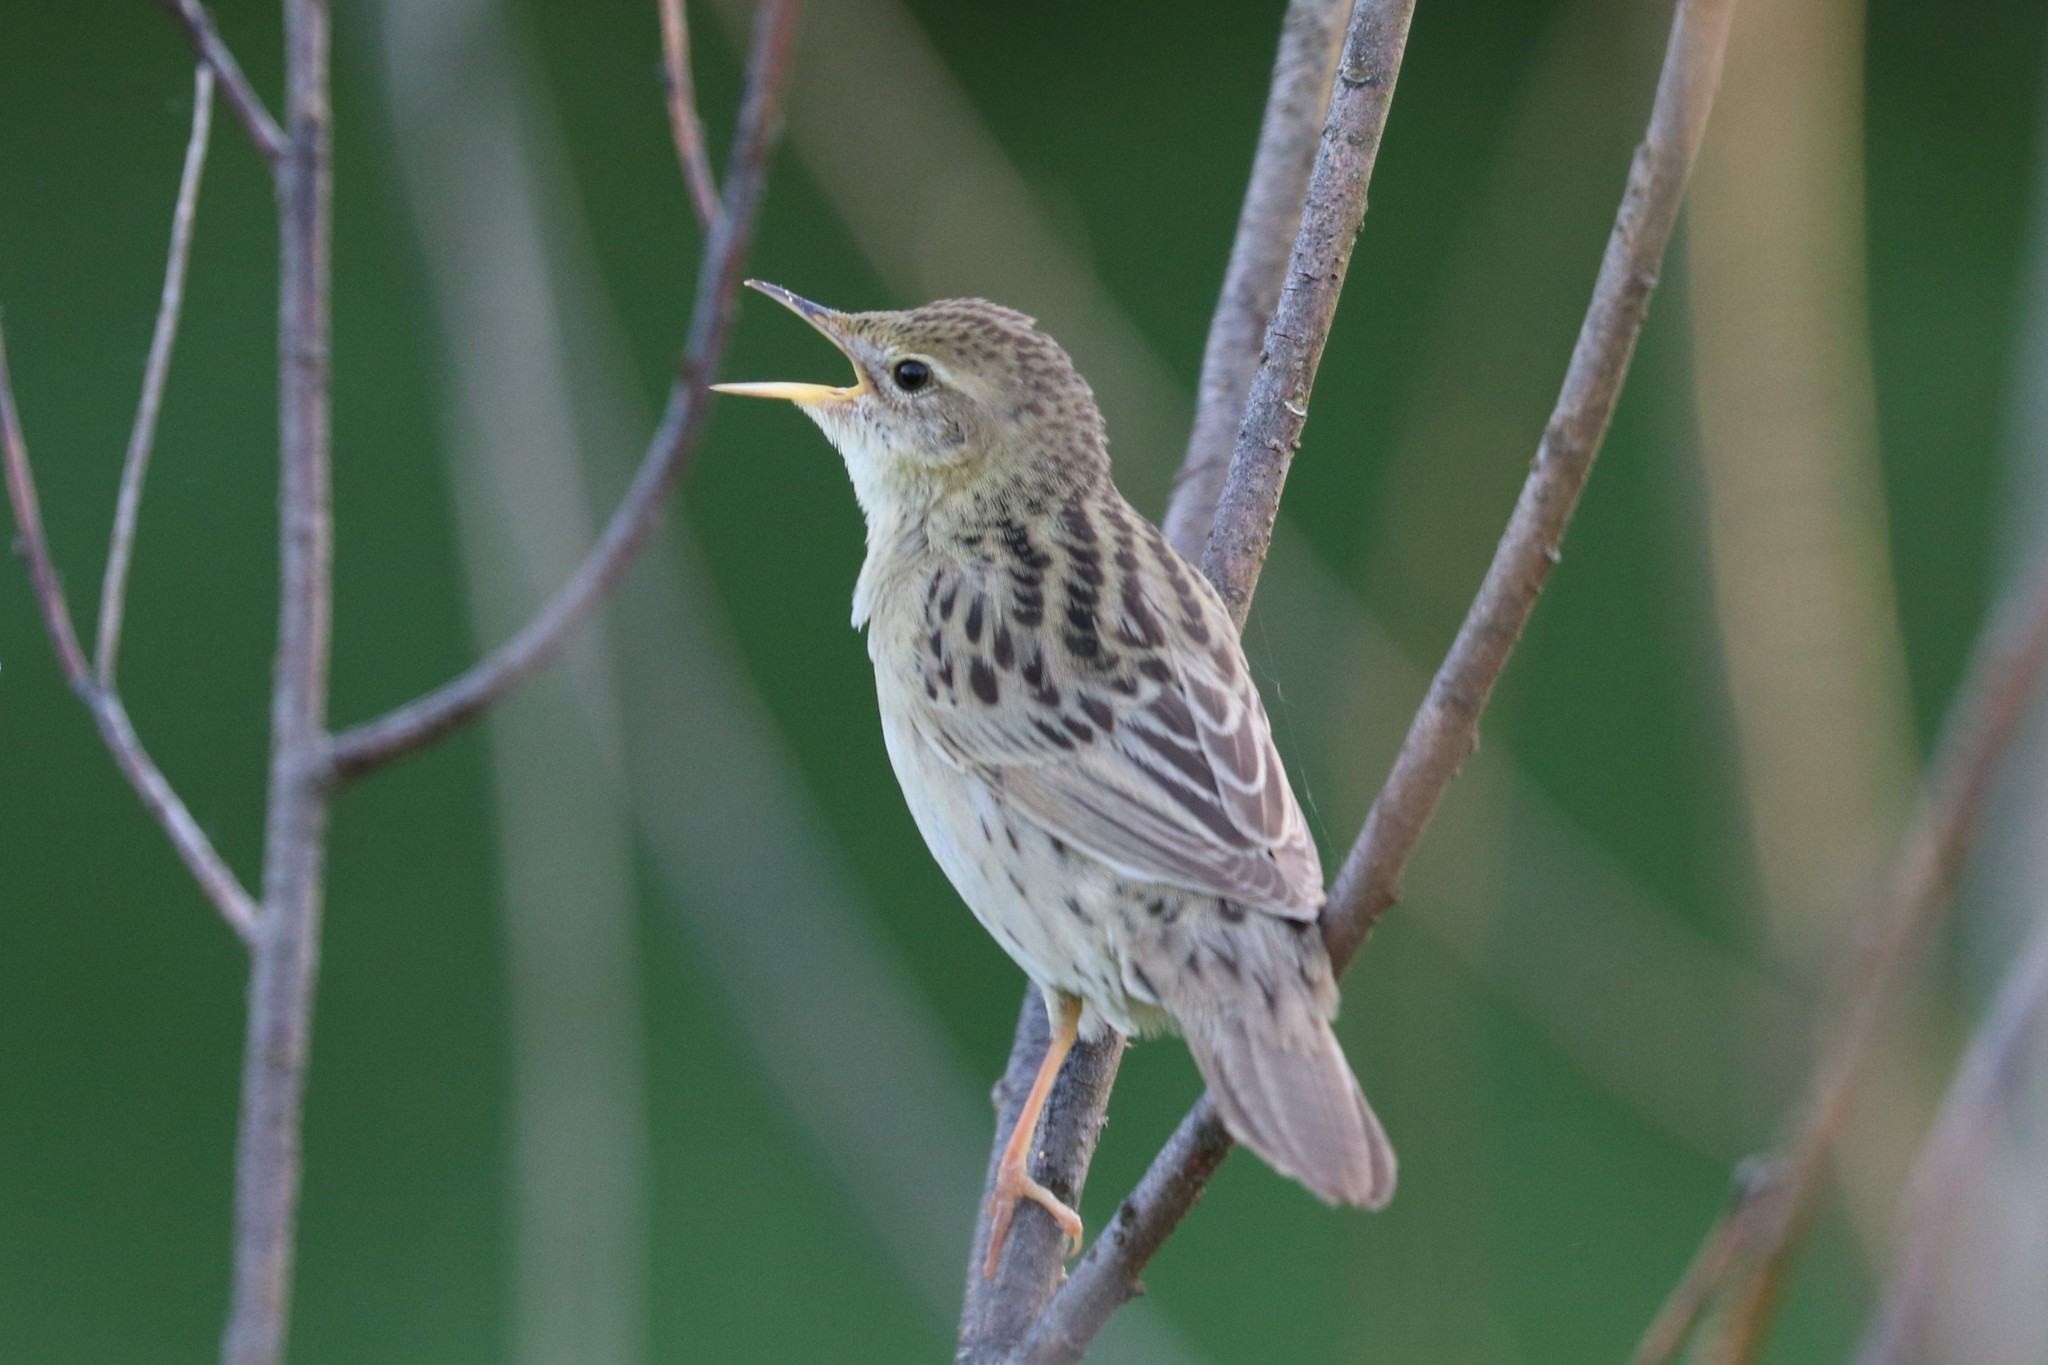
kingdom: Animalia
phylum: Chordata
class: Aves
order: Passeriformes
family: Locustellidae
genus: Locustella
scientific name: Locustella naevia
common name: Common grasshopper warbler
